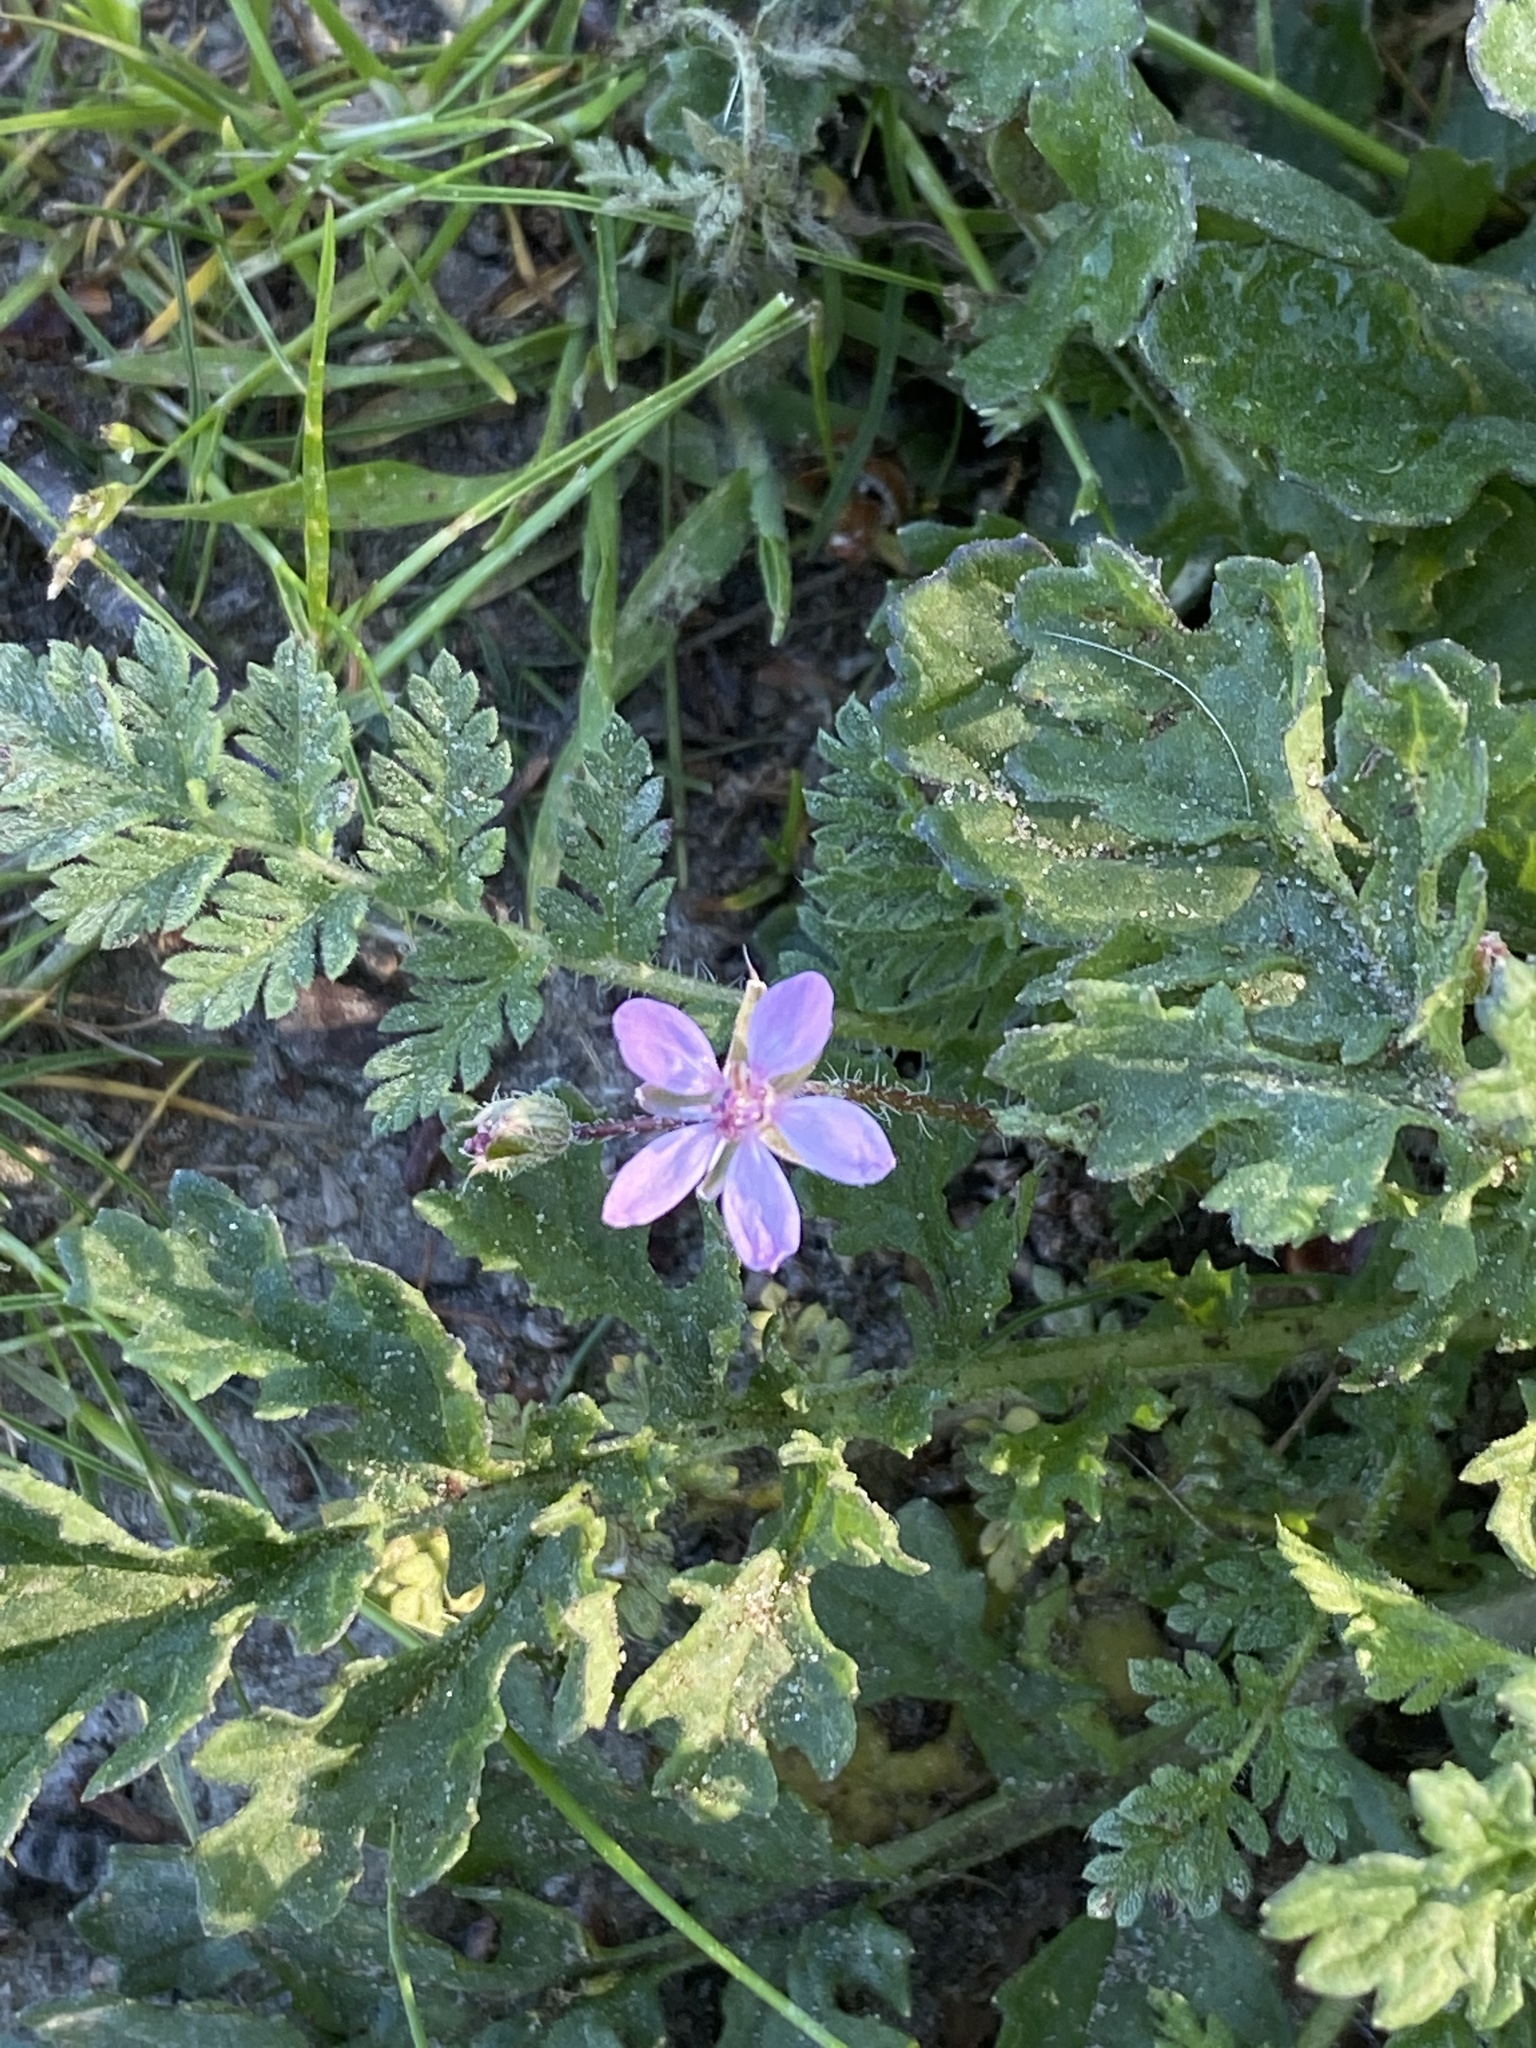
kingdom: Plantae
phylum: Tracheophyta
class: Magnoliopsida
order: Geraniales
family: Geraniaceae
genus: Erodium
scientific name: Erodium cicutarium
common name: Common stork's-bill
